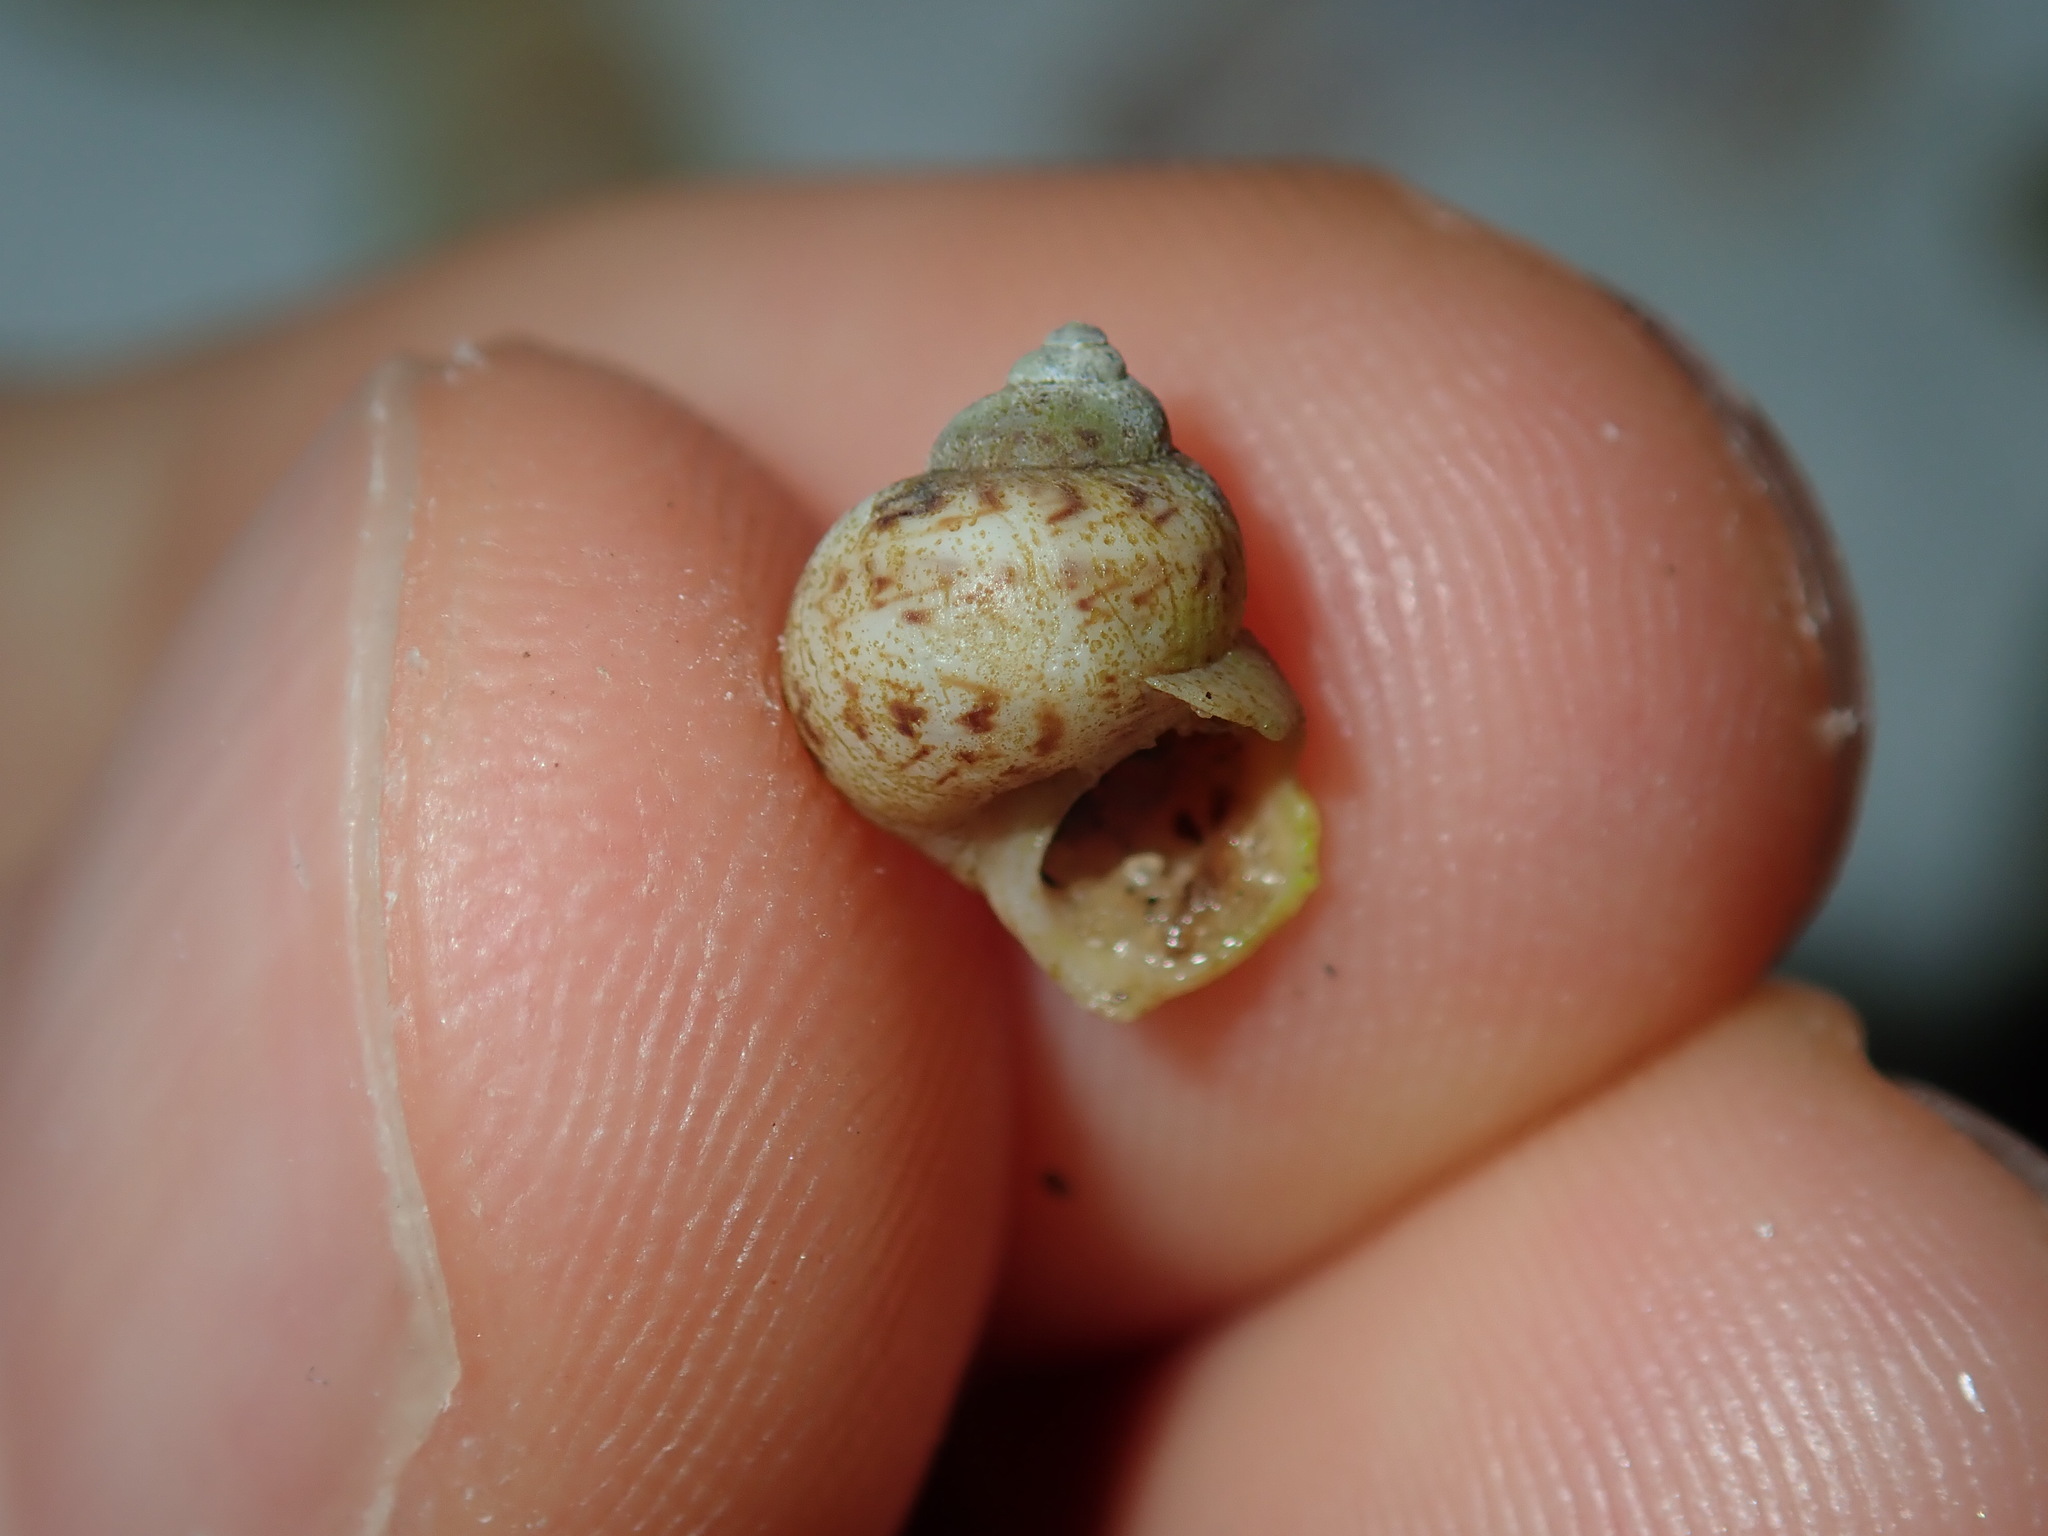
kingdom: Animalia
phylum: Mollusca
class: Gastropoda
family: Amphibolidae
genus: Phallomedusa
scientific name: Phallomedusa solida
